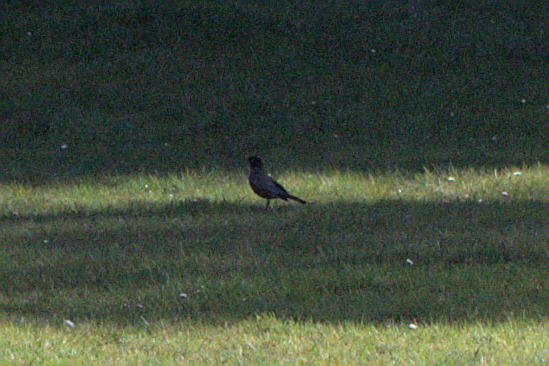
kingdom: Animalia
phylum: Chordata
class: Aves
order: Passeriformes
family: Turdidae
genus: Turdus
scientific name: Turdus migratorius
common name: American robin
